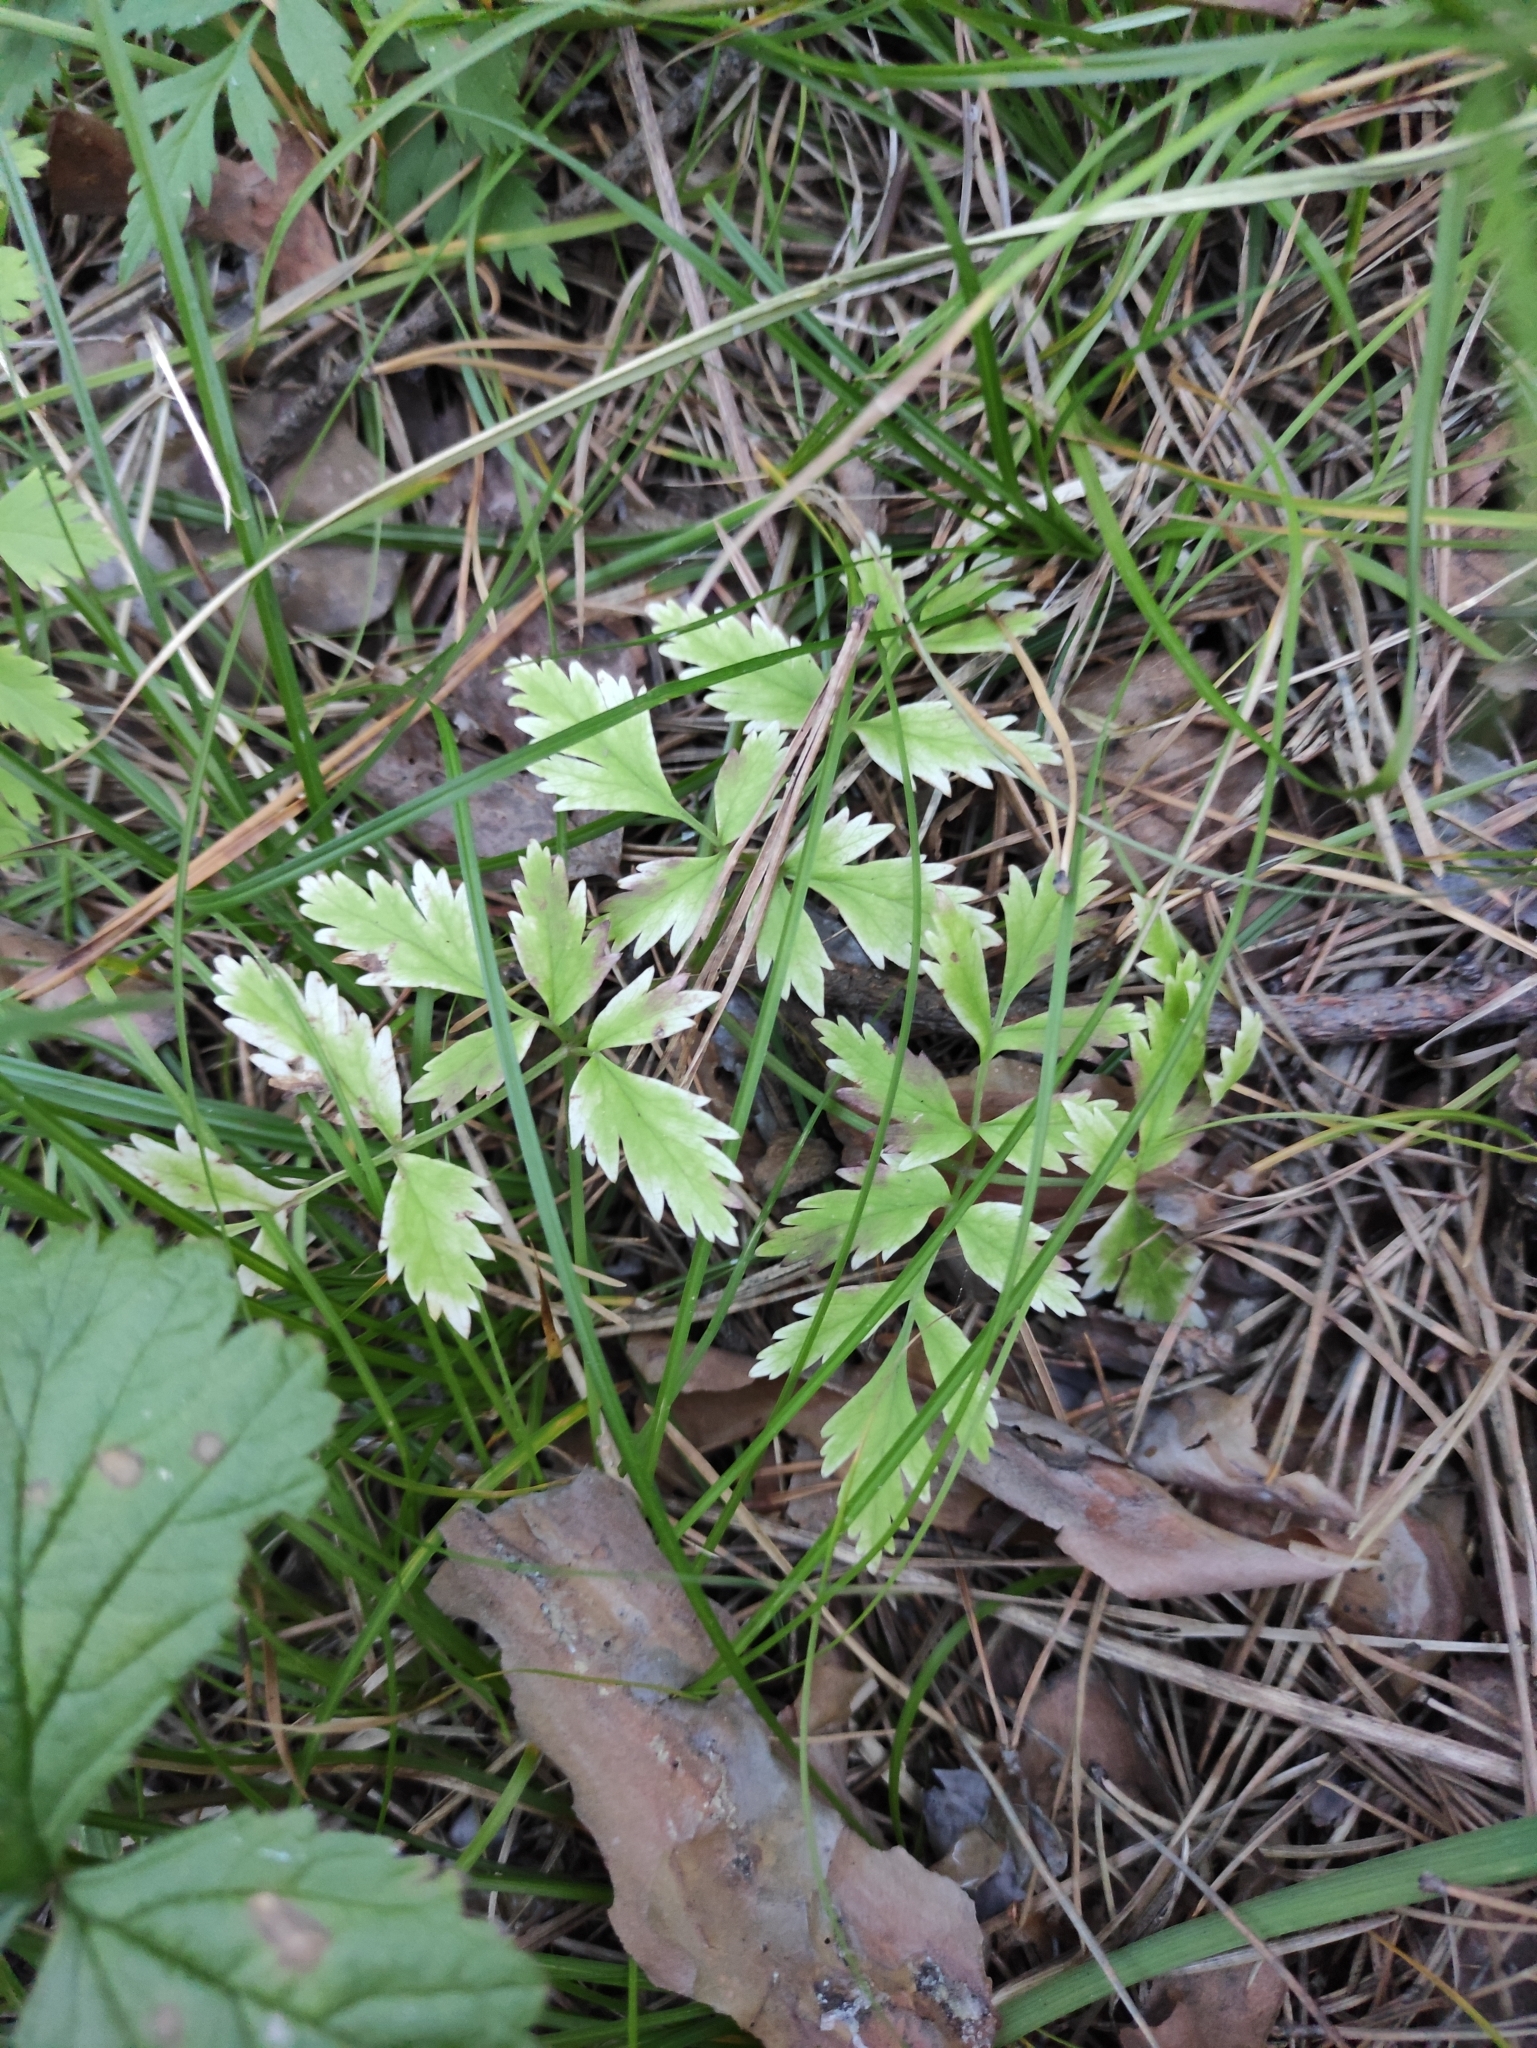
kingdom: Plantae
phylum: Tracheophyta
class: Magnoliopsida
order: Apiales
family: Apiaceae
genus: Aegopodium
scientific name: Aegopodium alpestre
